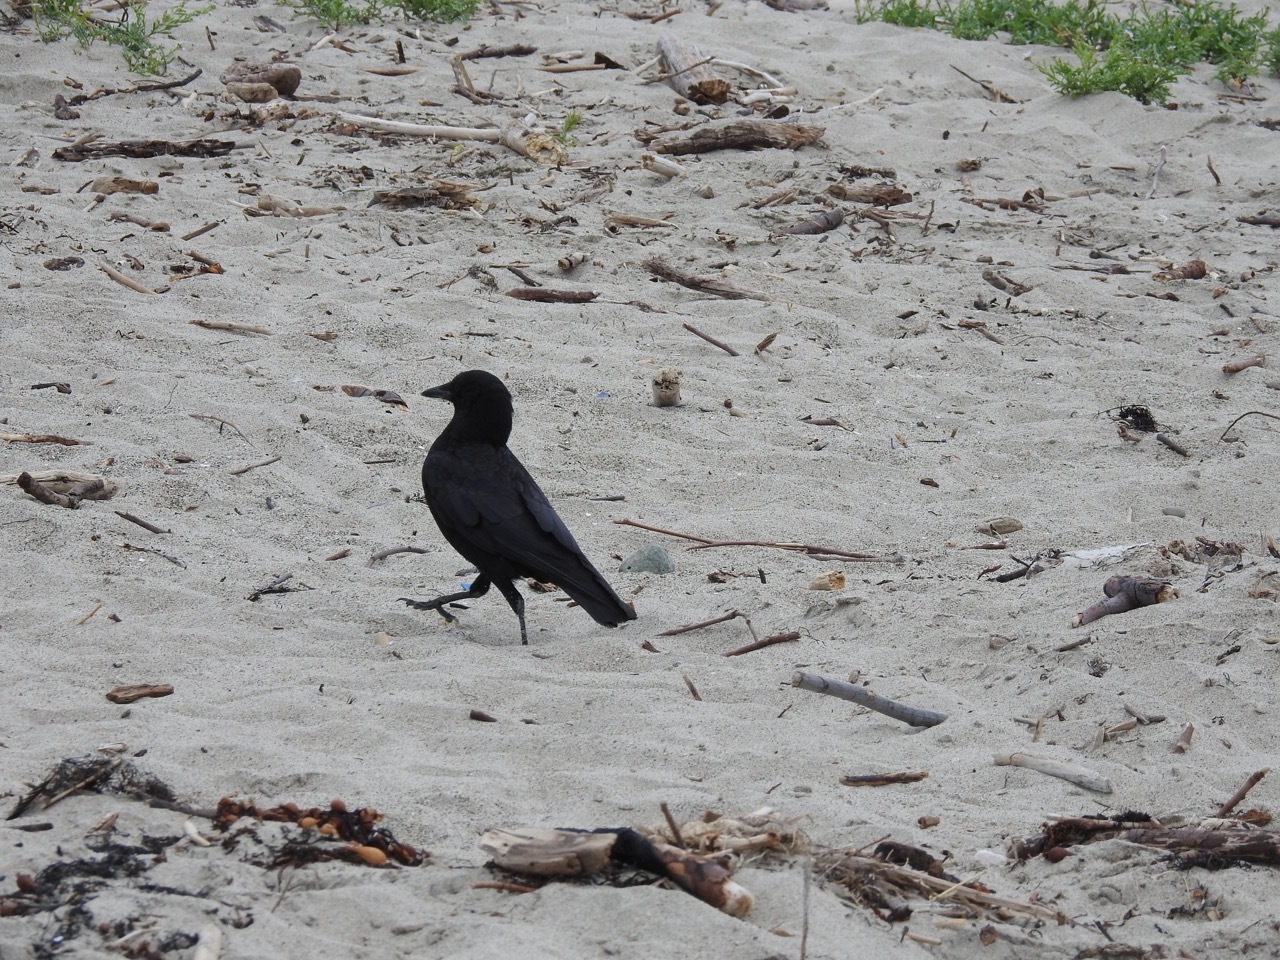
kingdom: Animalia
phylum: Chordata
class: Aves
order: Passeriformes
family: Corvidae
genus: Corvus
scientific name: Corvus brachyrhynchos
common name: American crow
